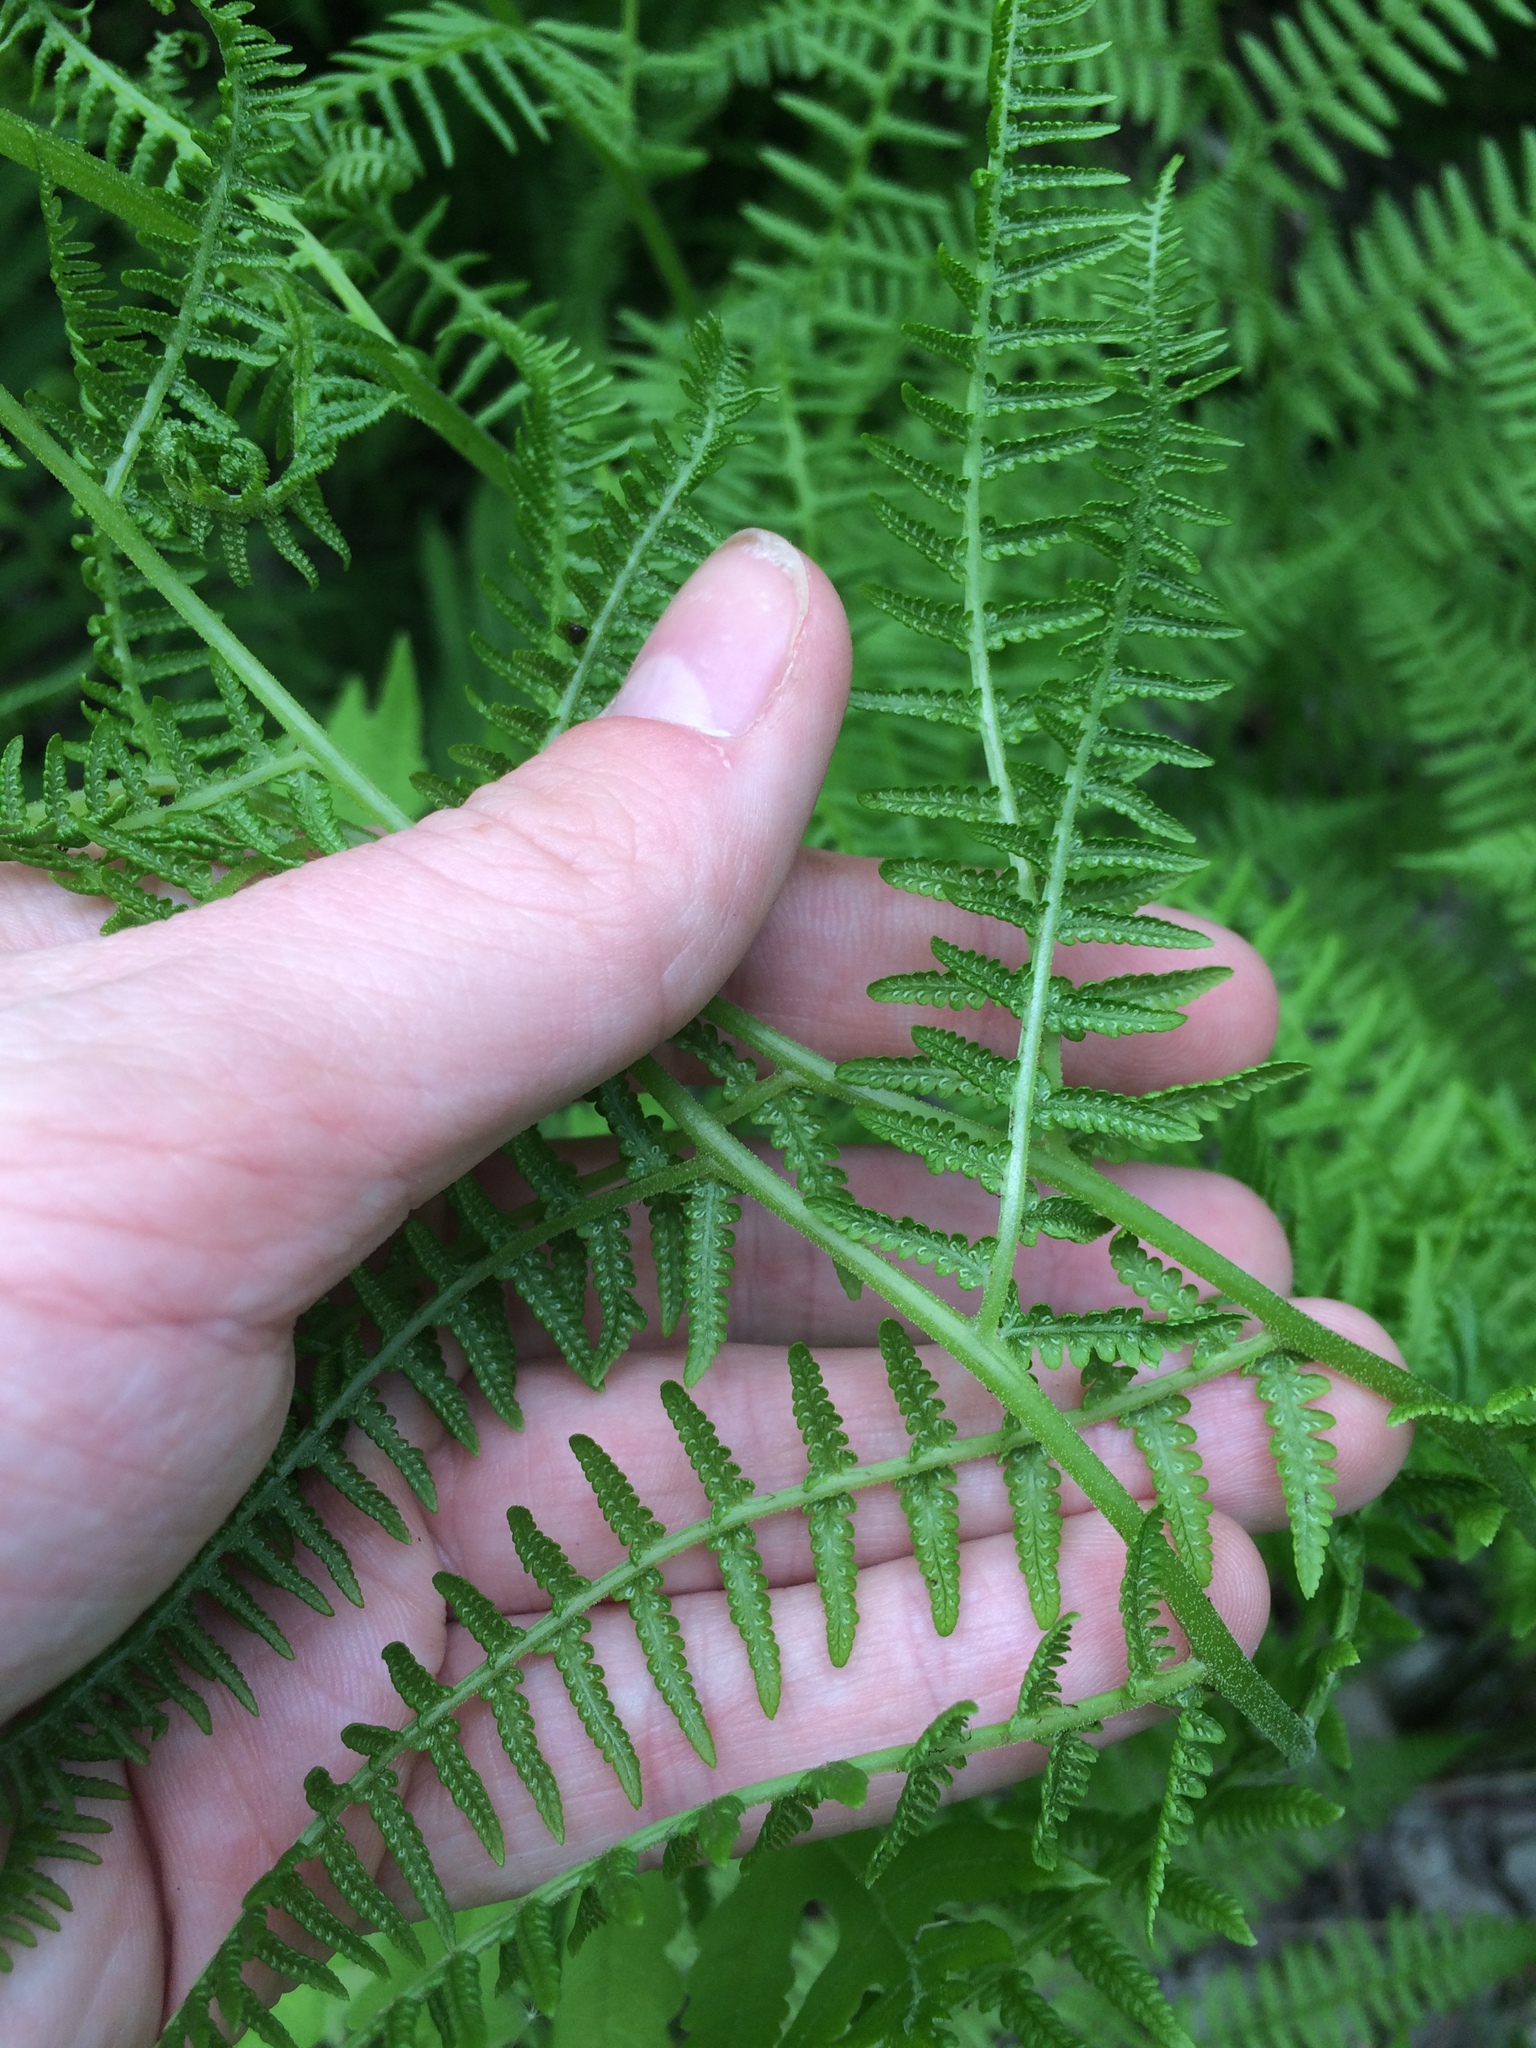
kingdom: Plantae
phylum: Tracheophyta
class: Polypodiopsida
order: Polypodiales
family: Athyriaceae
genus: Athyrium
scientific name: Athyrium angustum
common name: Northern lady fern
